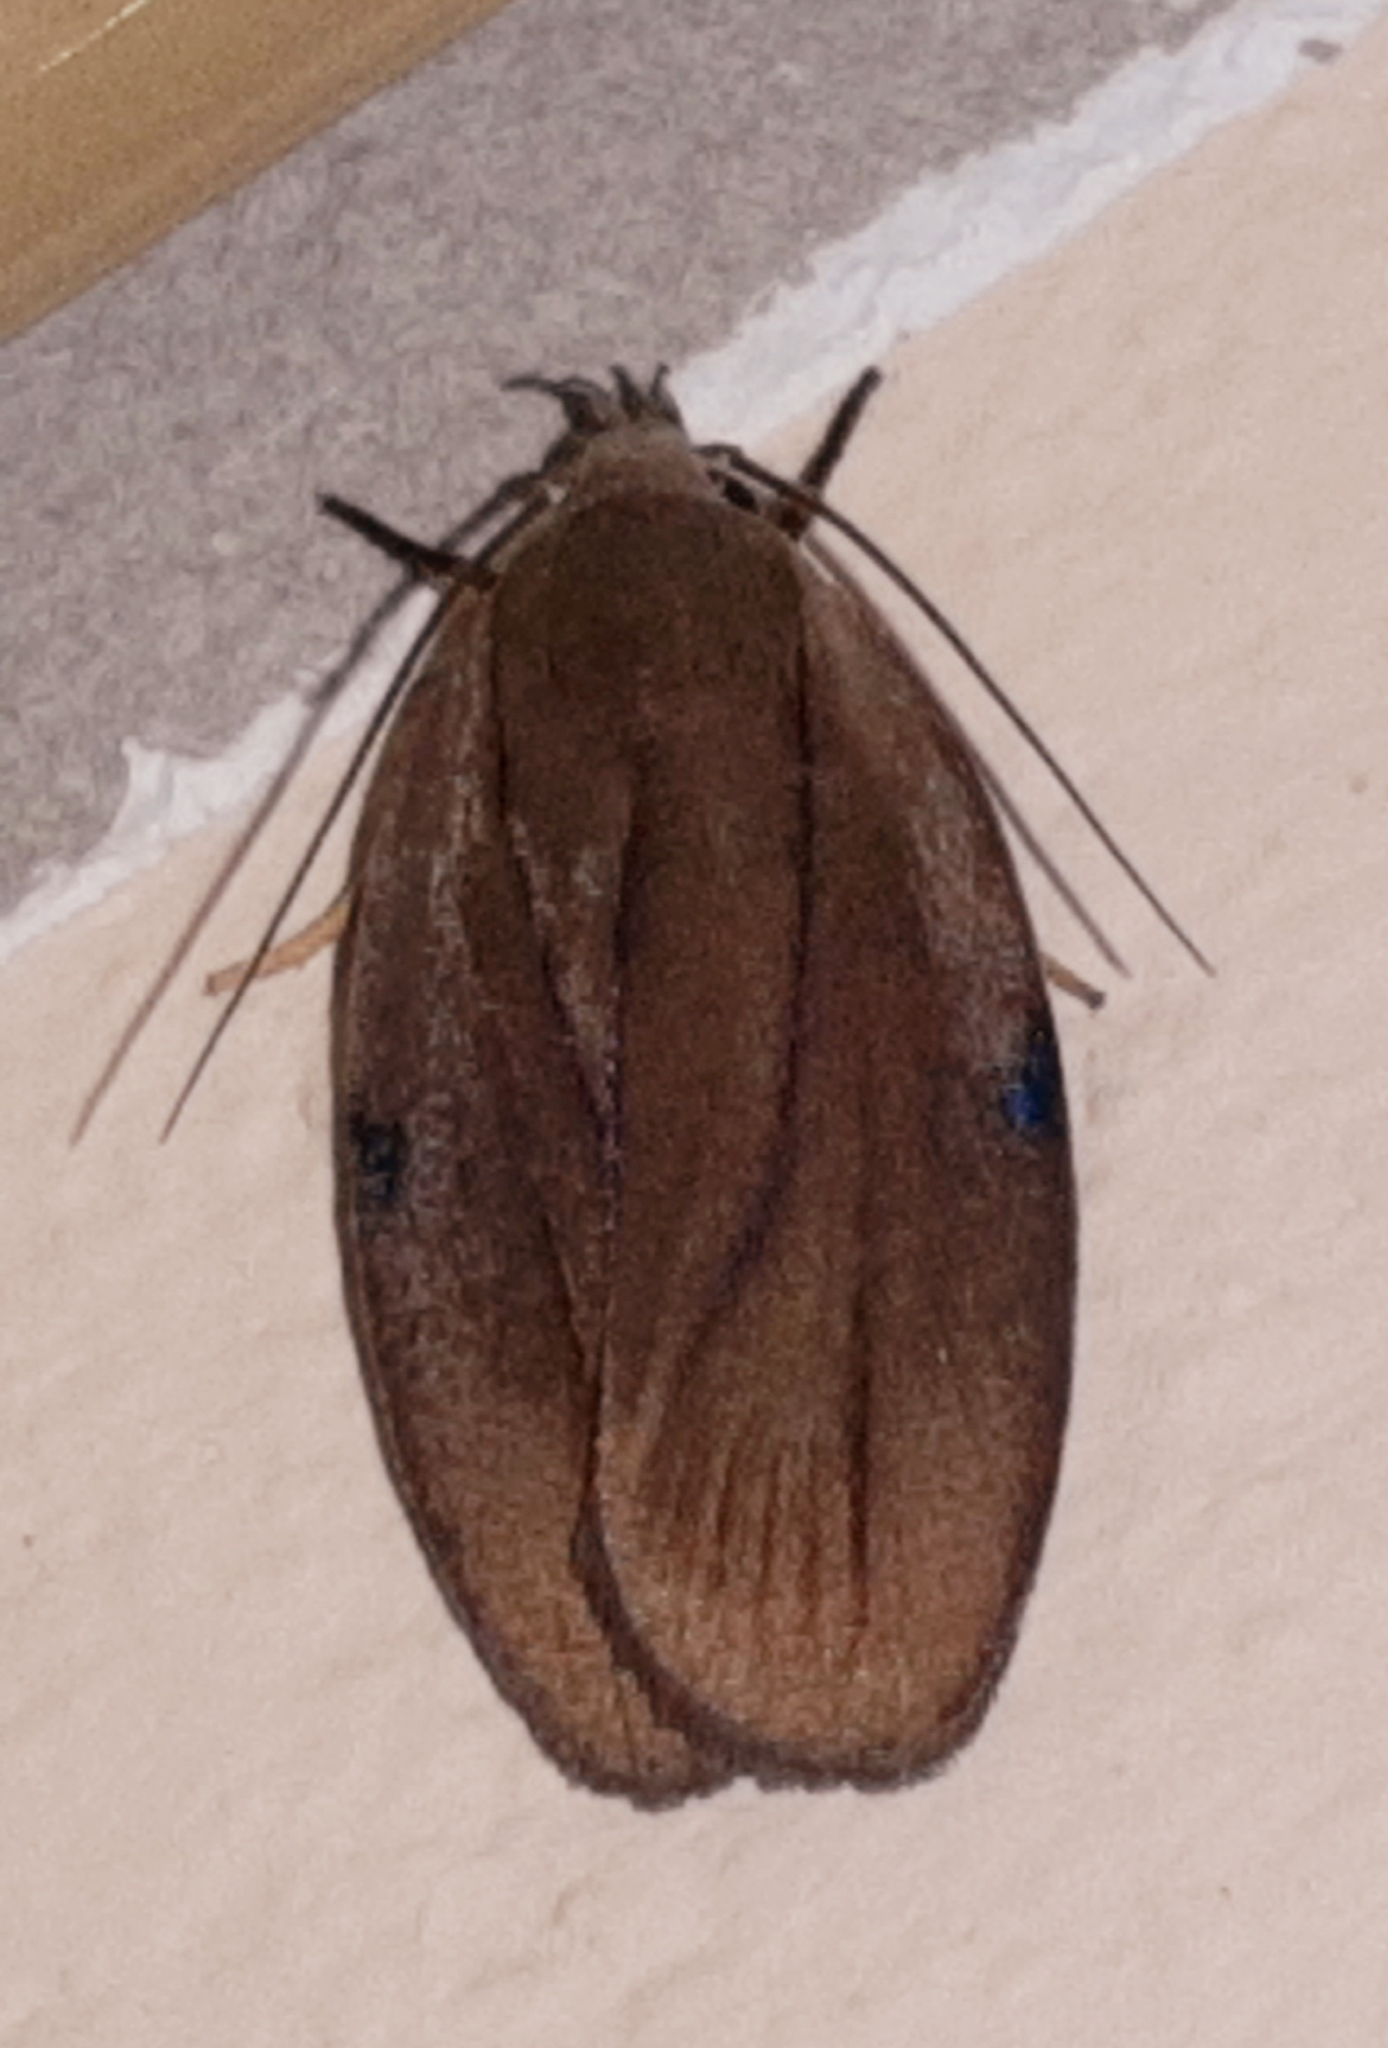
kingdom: Animalia
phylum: Arthropoda
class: Insecta
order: Lepidoptera
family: Depressariidae
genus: Stenoma
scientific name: Stenoma exarata
